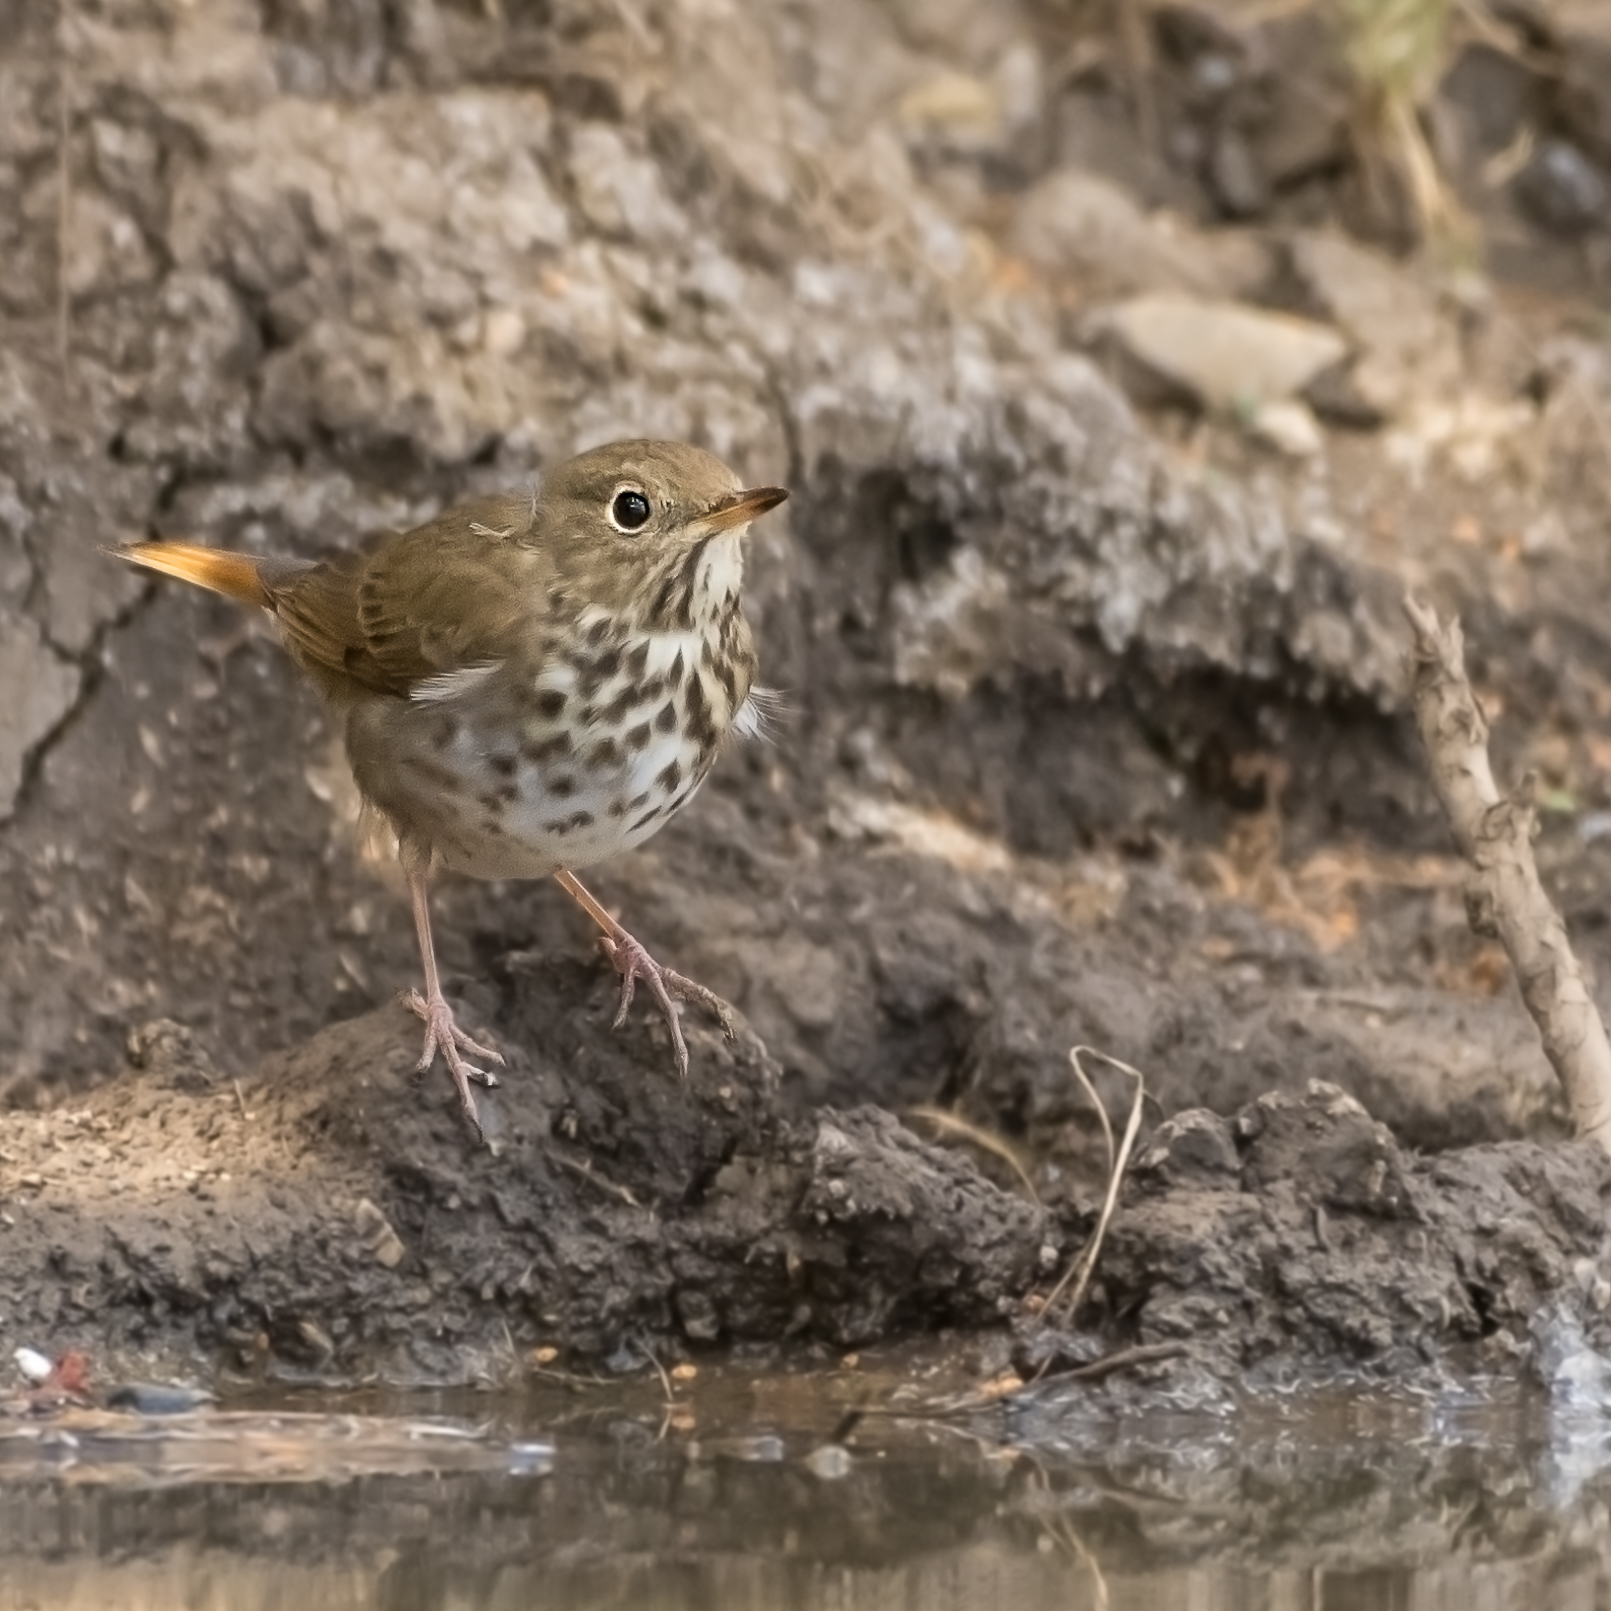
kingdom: Animalia
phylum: Chordata
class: Aves
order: Passeriformes
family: Turdidae
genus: Catharus
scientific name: Catharus guttatus
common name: Hermit thrush
